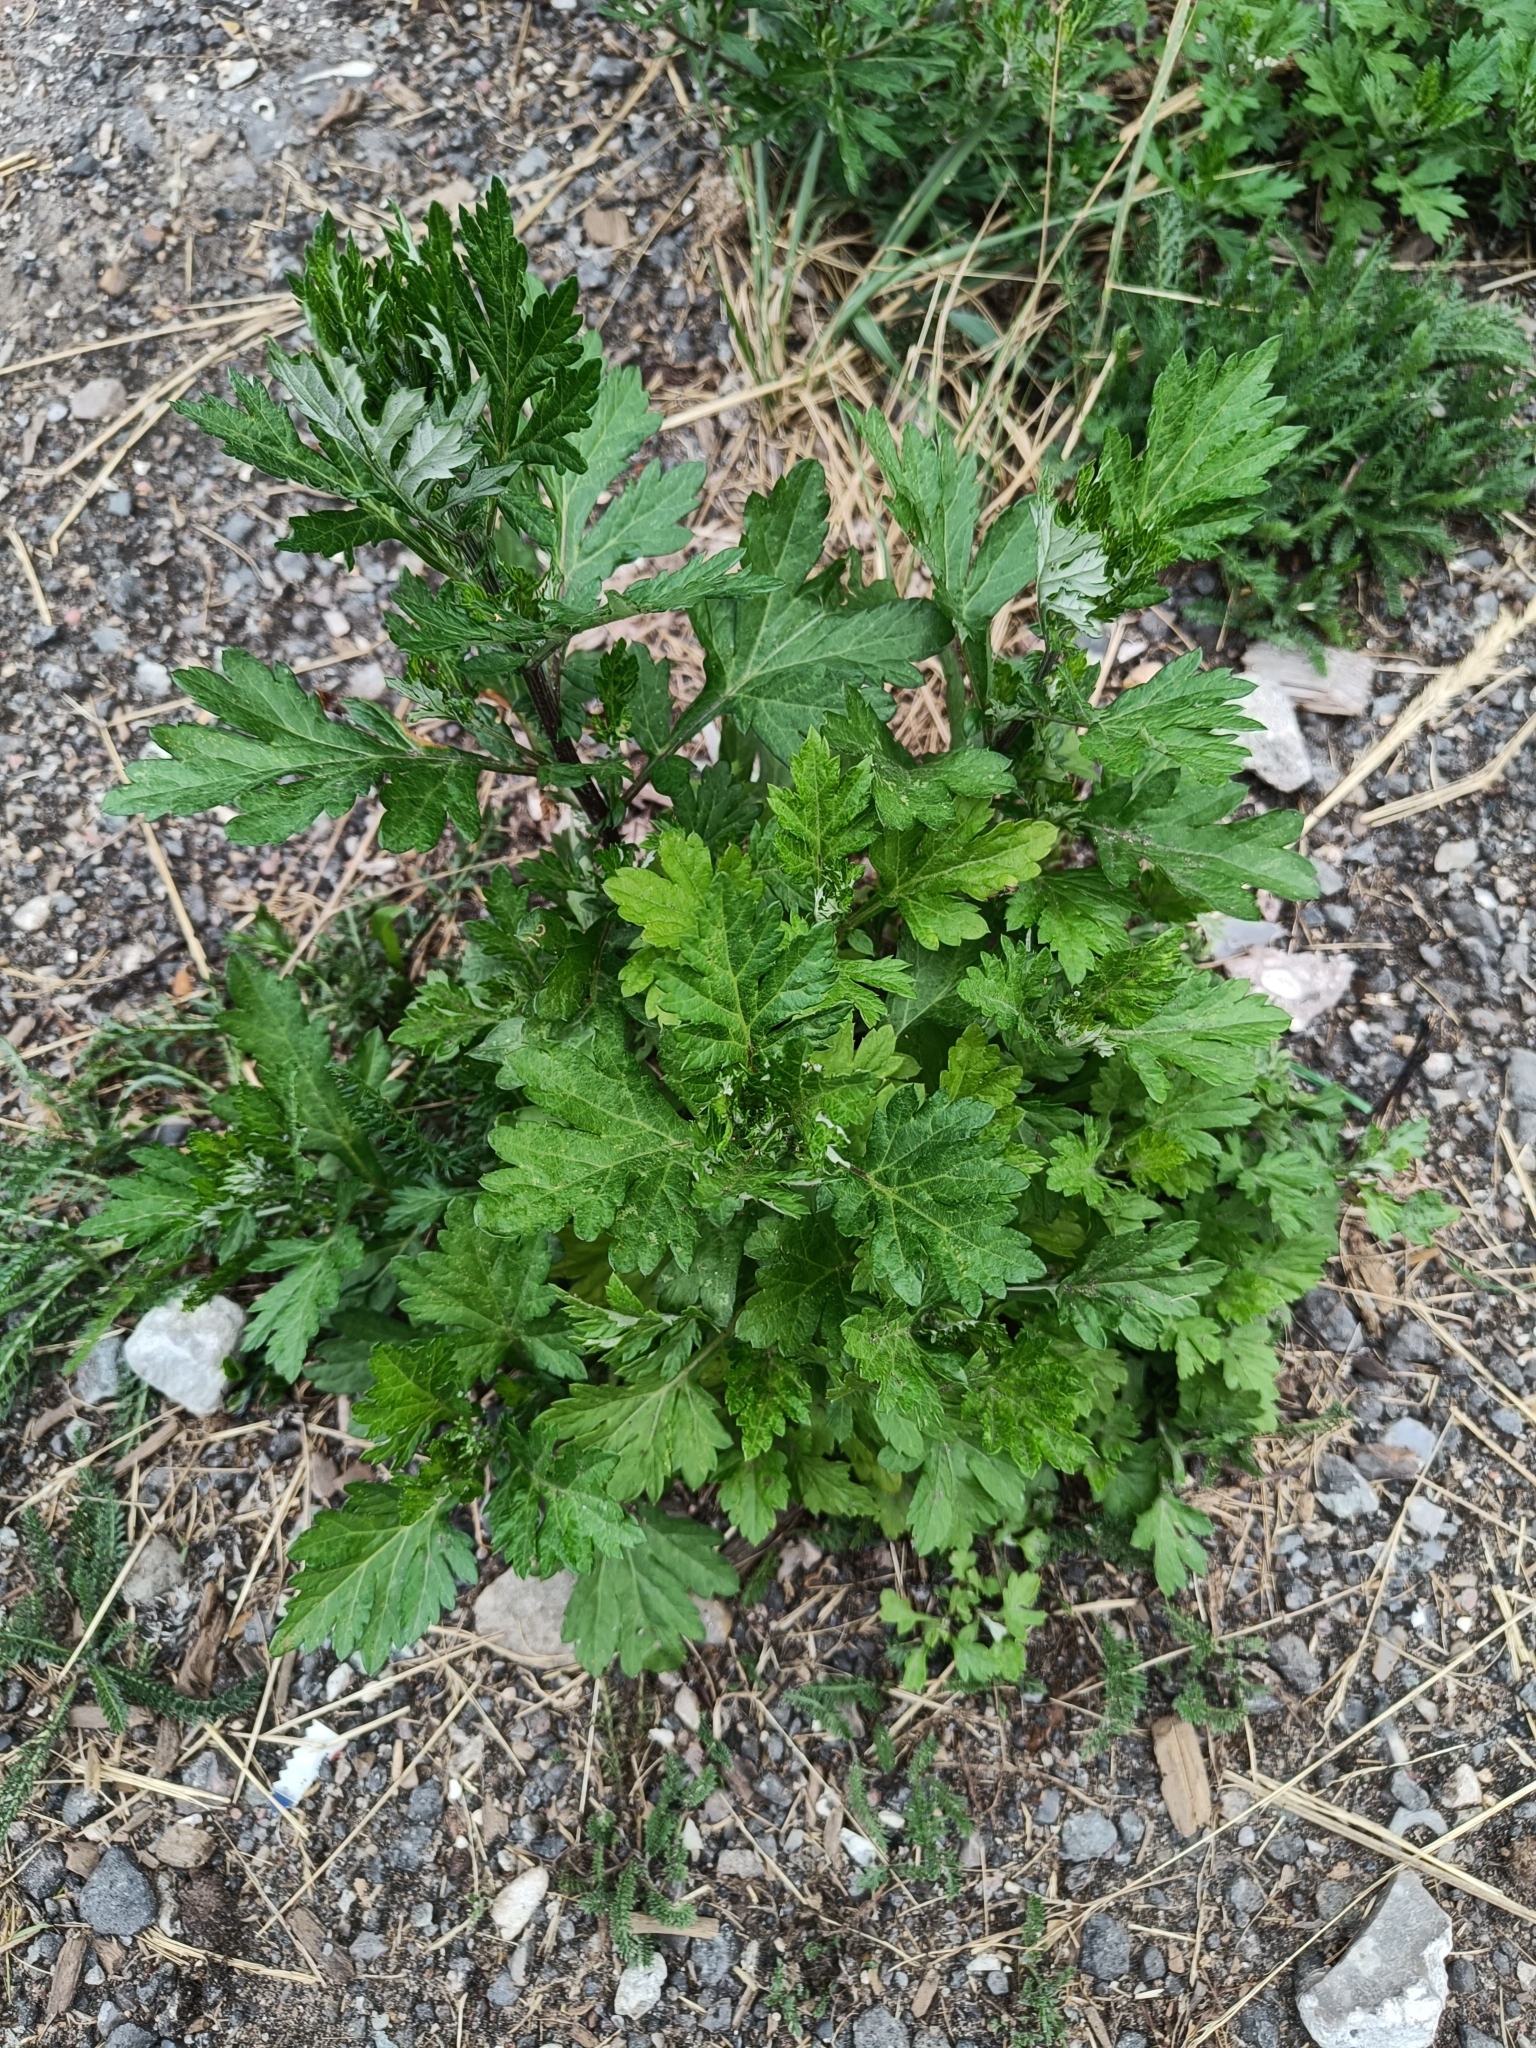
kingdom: Plantae
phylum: Tracheophyta
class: Magnoliopsida
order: Asterales
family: Asteraceae
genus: Artemisia
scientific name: Artemisia vulgaris
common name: Mugwort
